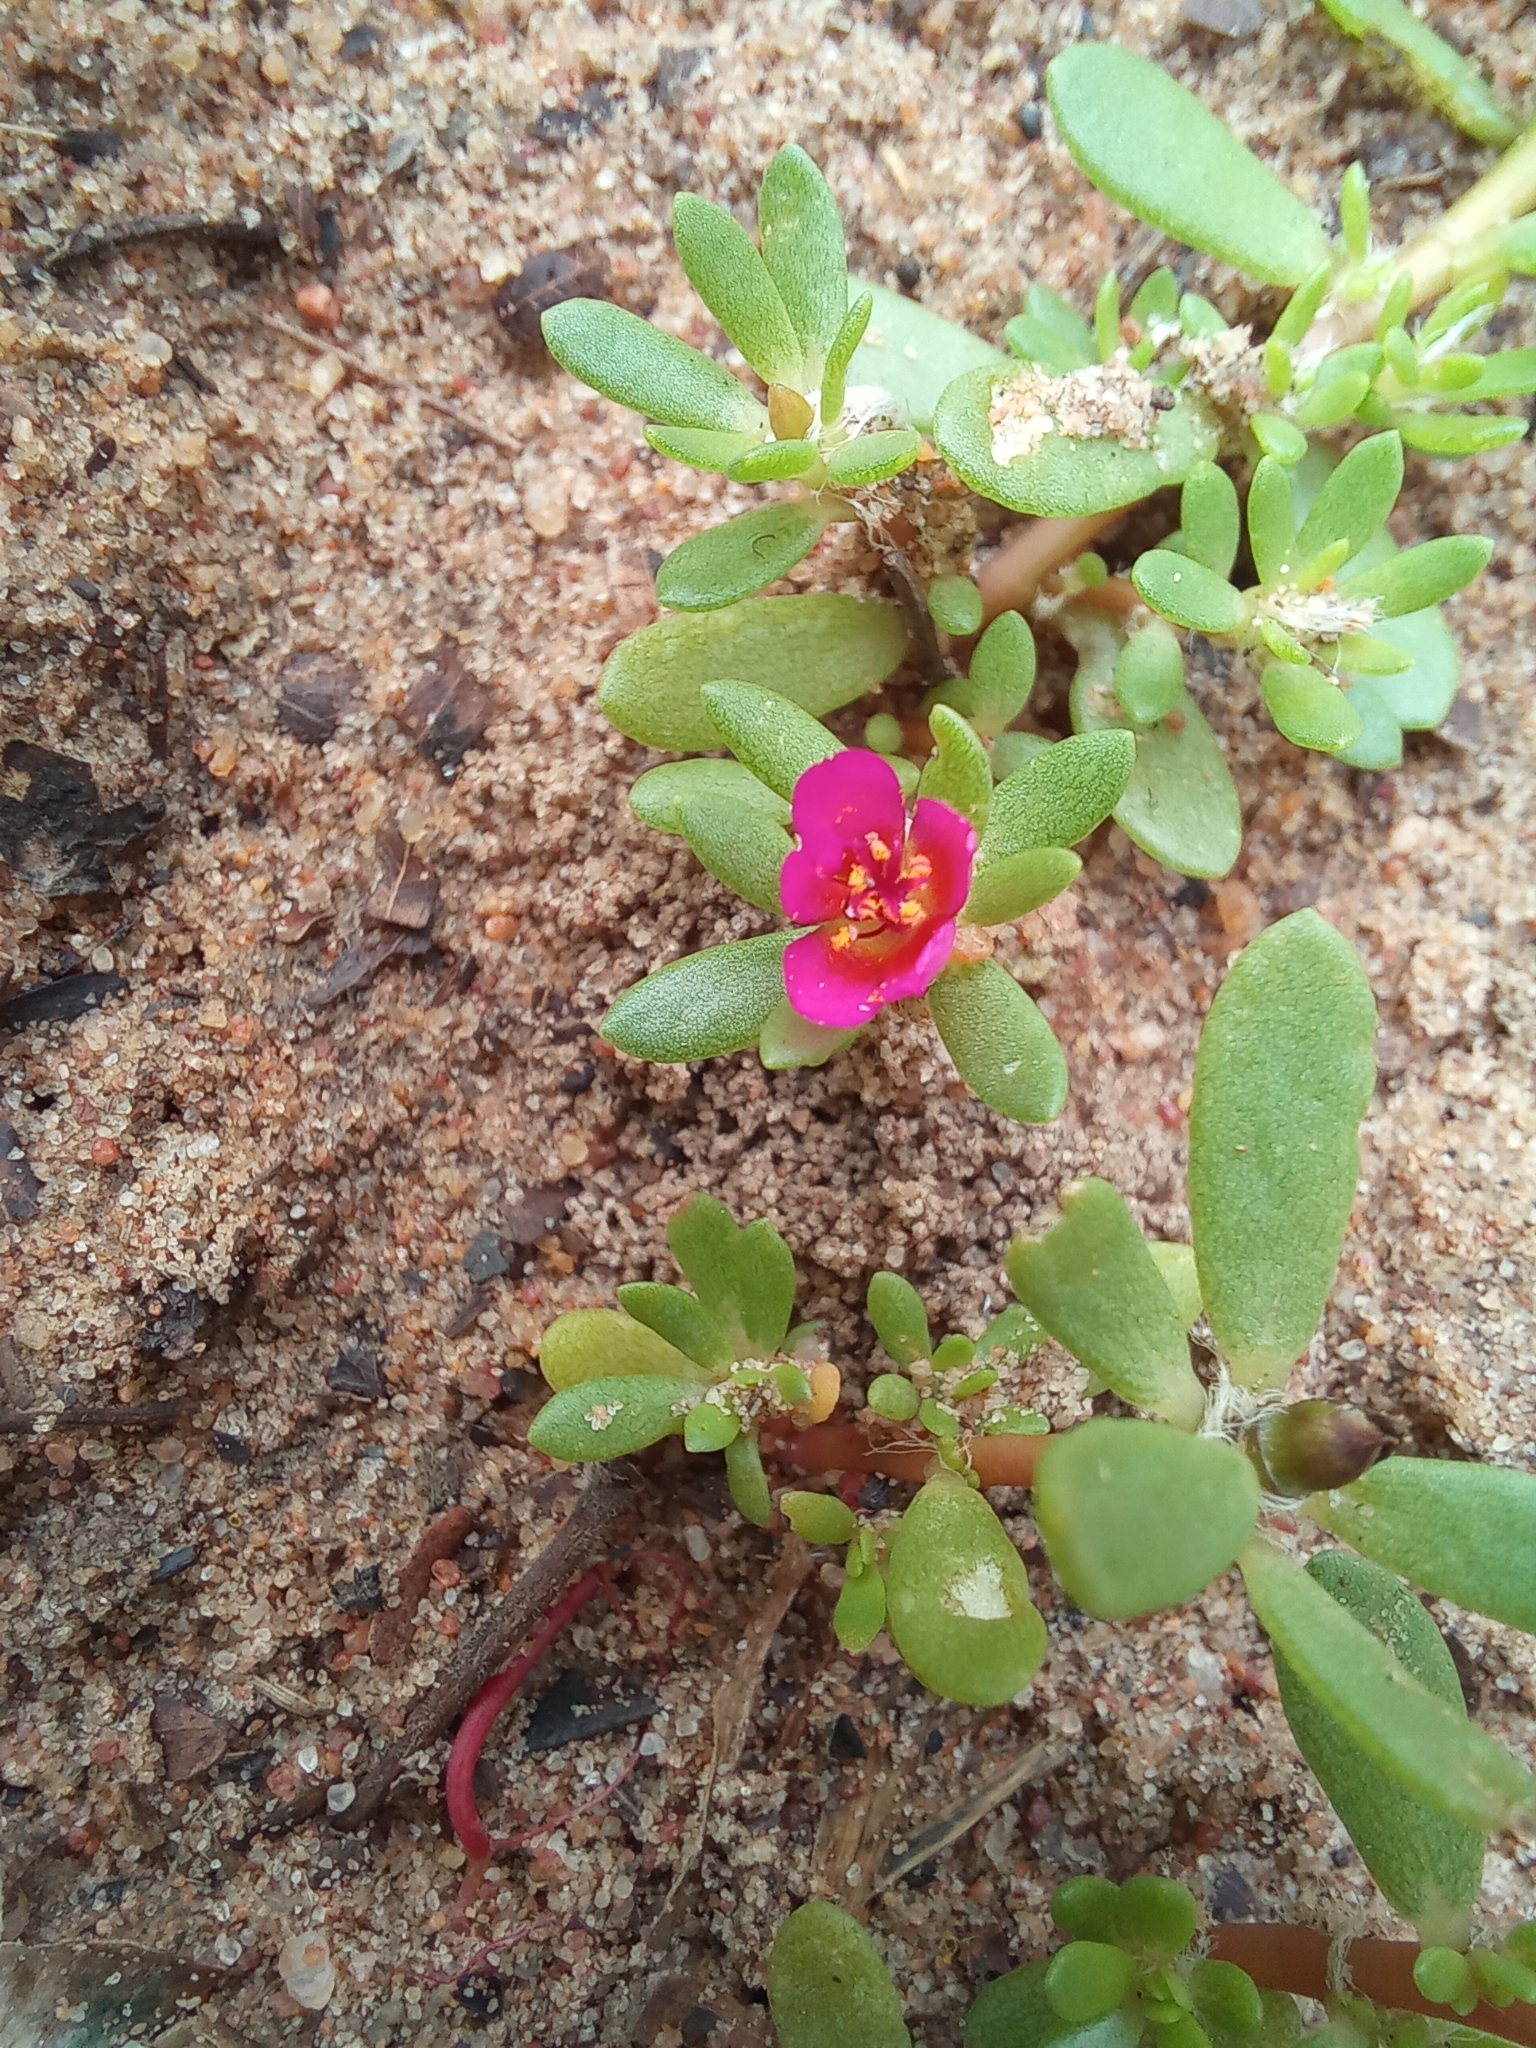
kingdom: Plantae
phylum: Tracheophyta
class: Magnoliopsida
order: Caryophyllales
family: Portulacaceae
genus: Portulaca
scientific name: Portulaca amilis
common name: Paraguayan purslane
